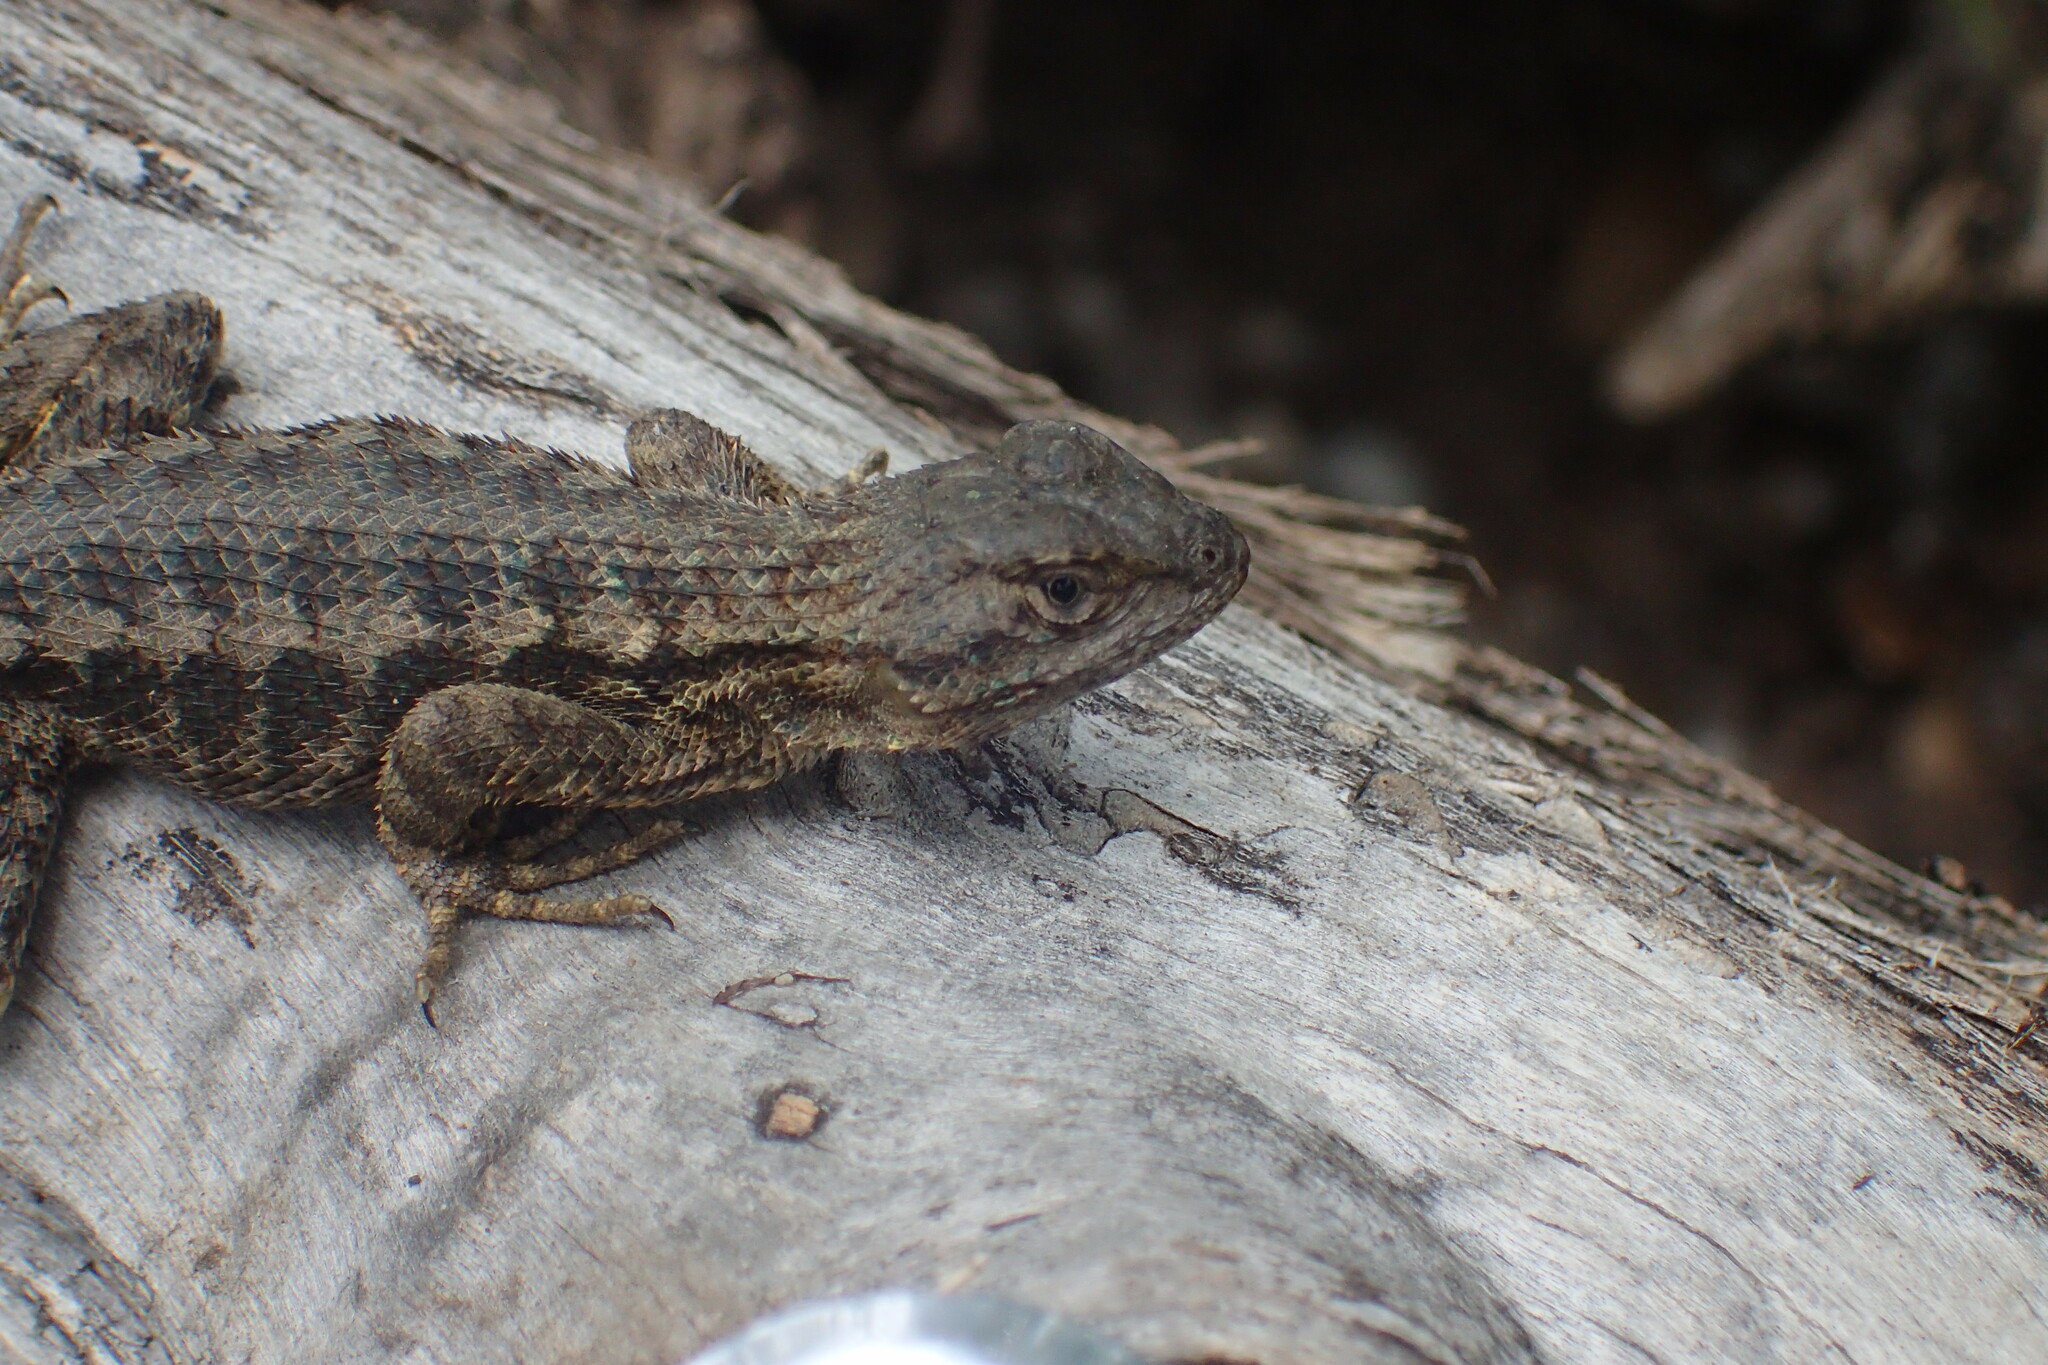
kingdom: Animalia
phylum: Chordata
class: Squamata
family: Phrynosomatidae
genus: Sceloporus
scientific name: Sceloporus occidentalis
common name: Western fence lizard
